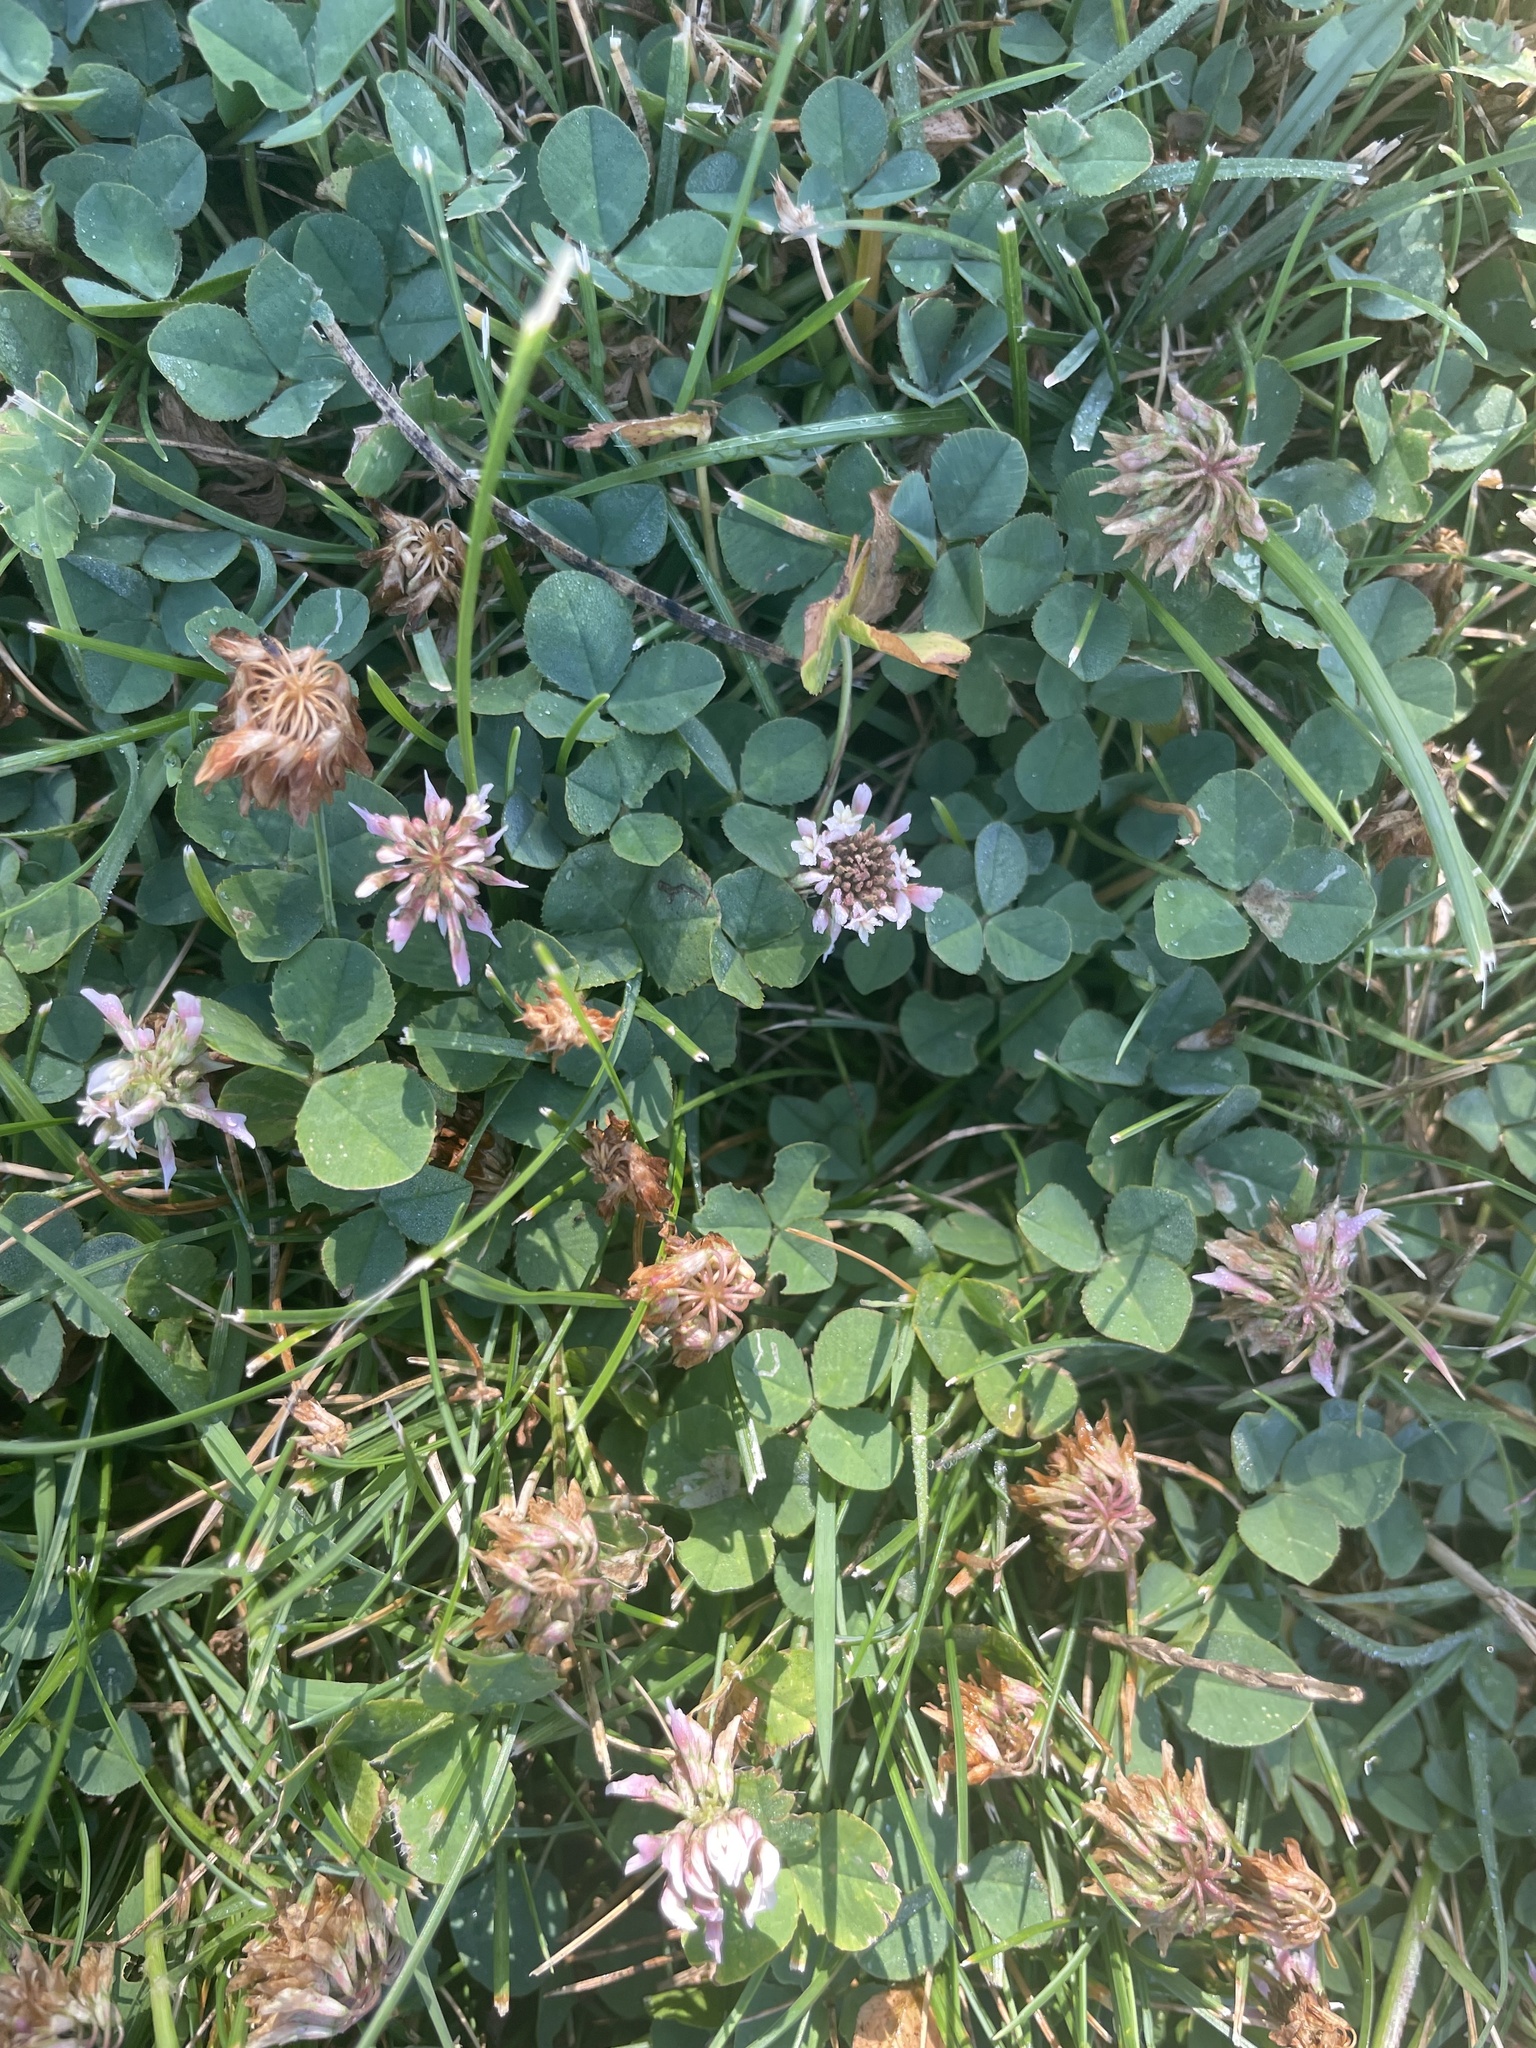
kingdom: Plantae
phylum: Tracheophyta
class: Magnoliopsida
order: Fabales
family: Fabaceae
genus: Trifolium
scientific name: Trifolium repens
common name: White clover
